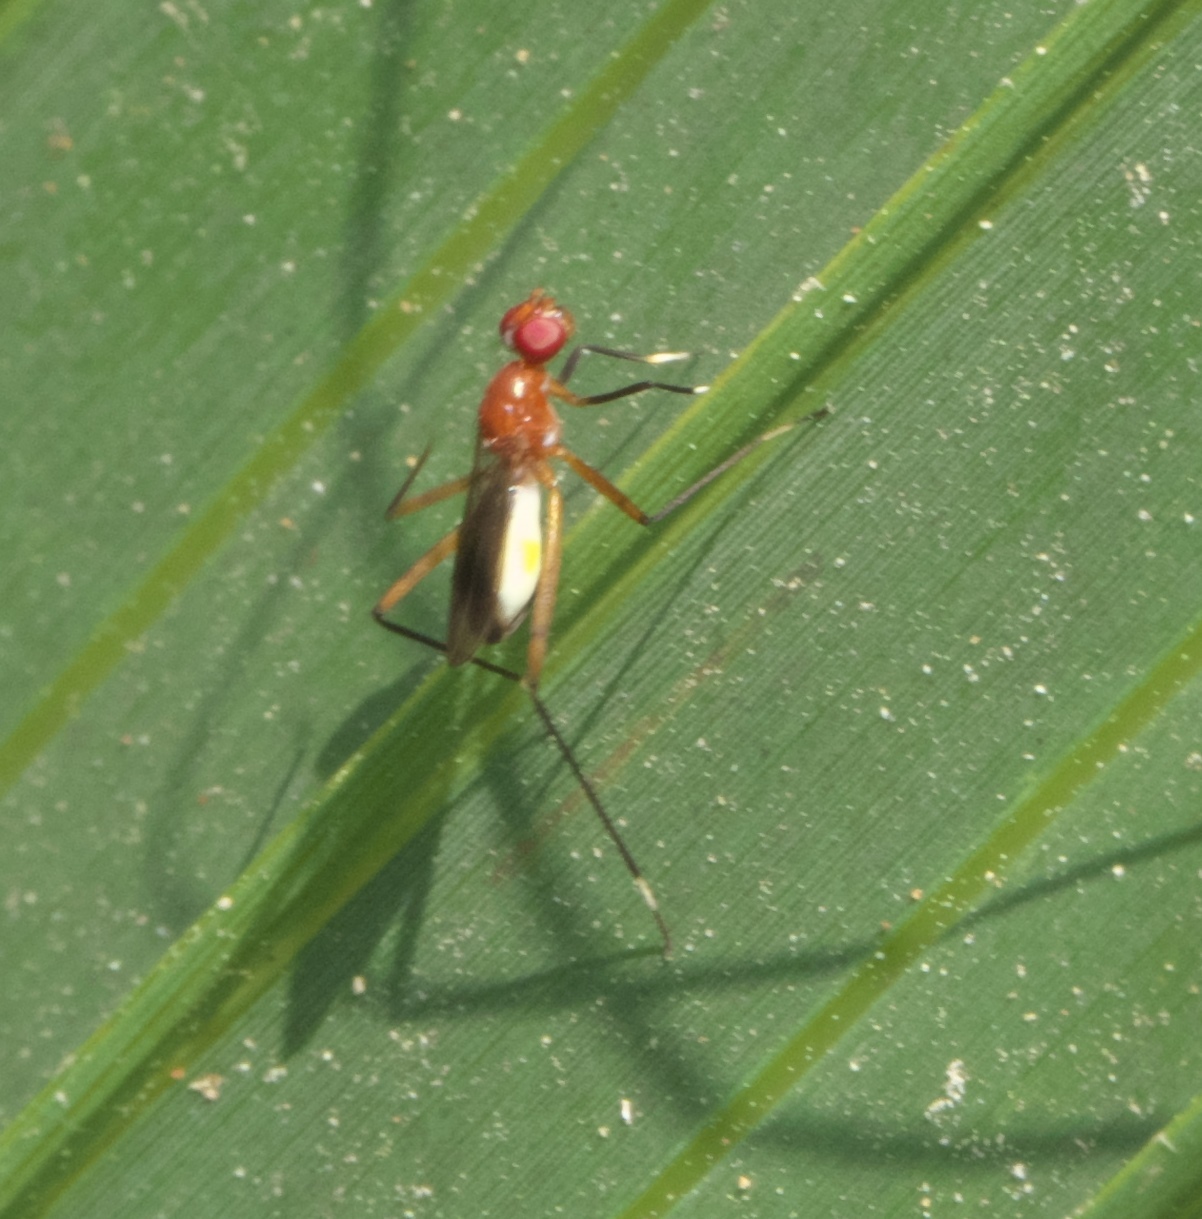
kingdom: Animalia
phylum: Arthropoda
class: Insecta
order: Diptera
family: Micropezidae
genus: Grallipeza
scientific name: Grallipeza nebulosa
